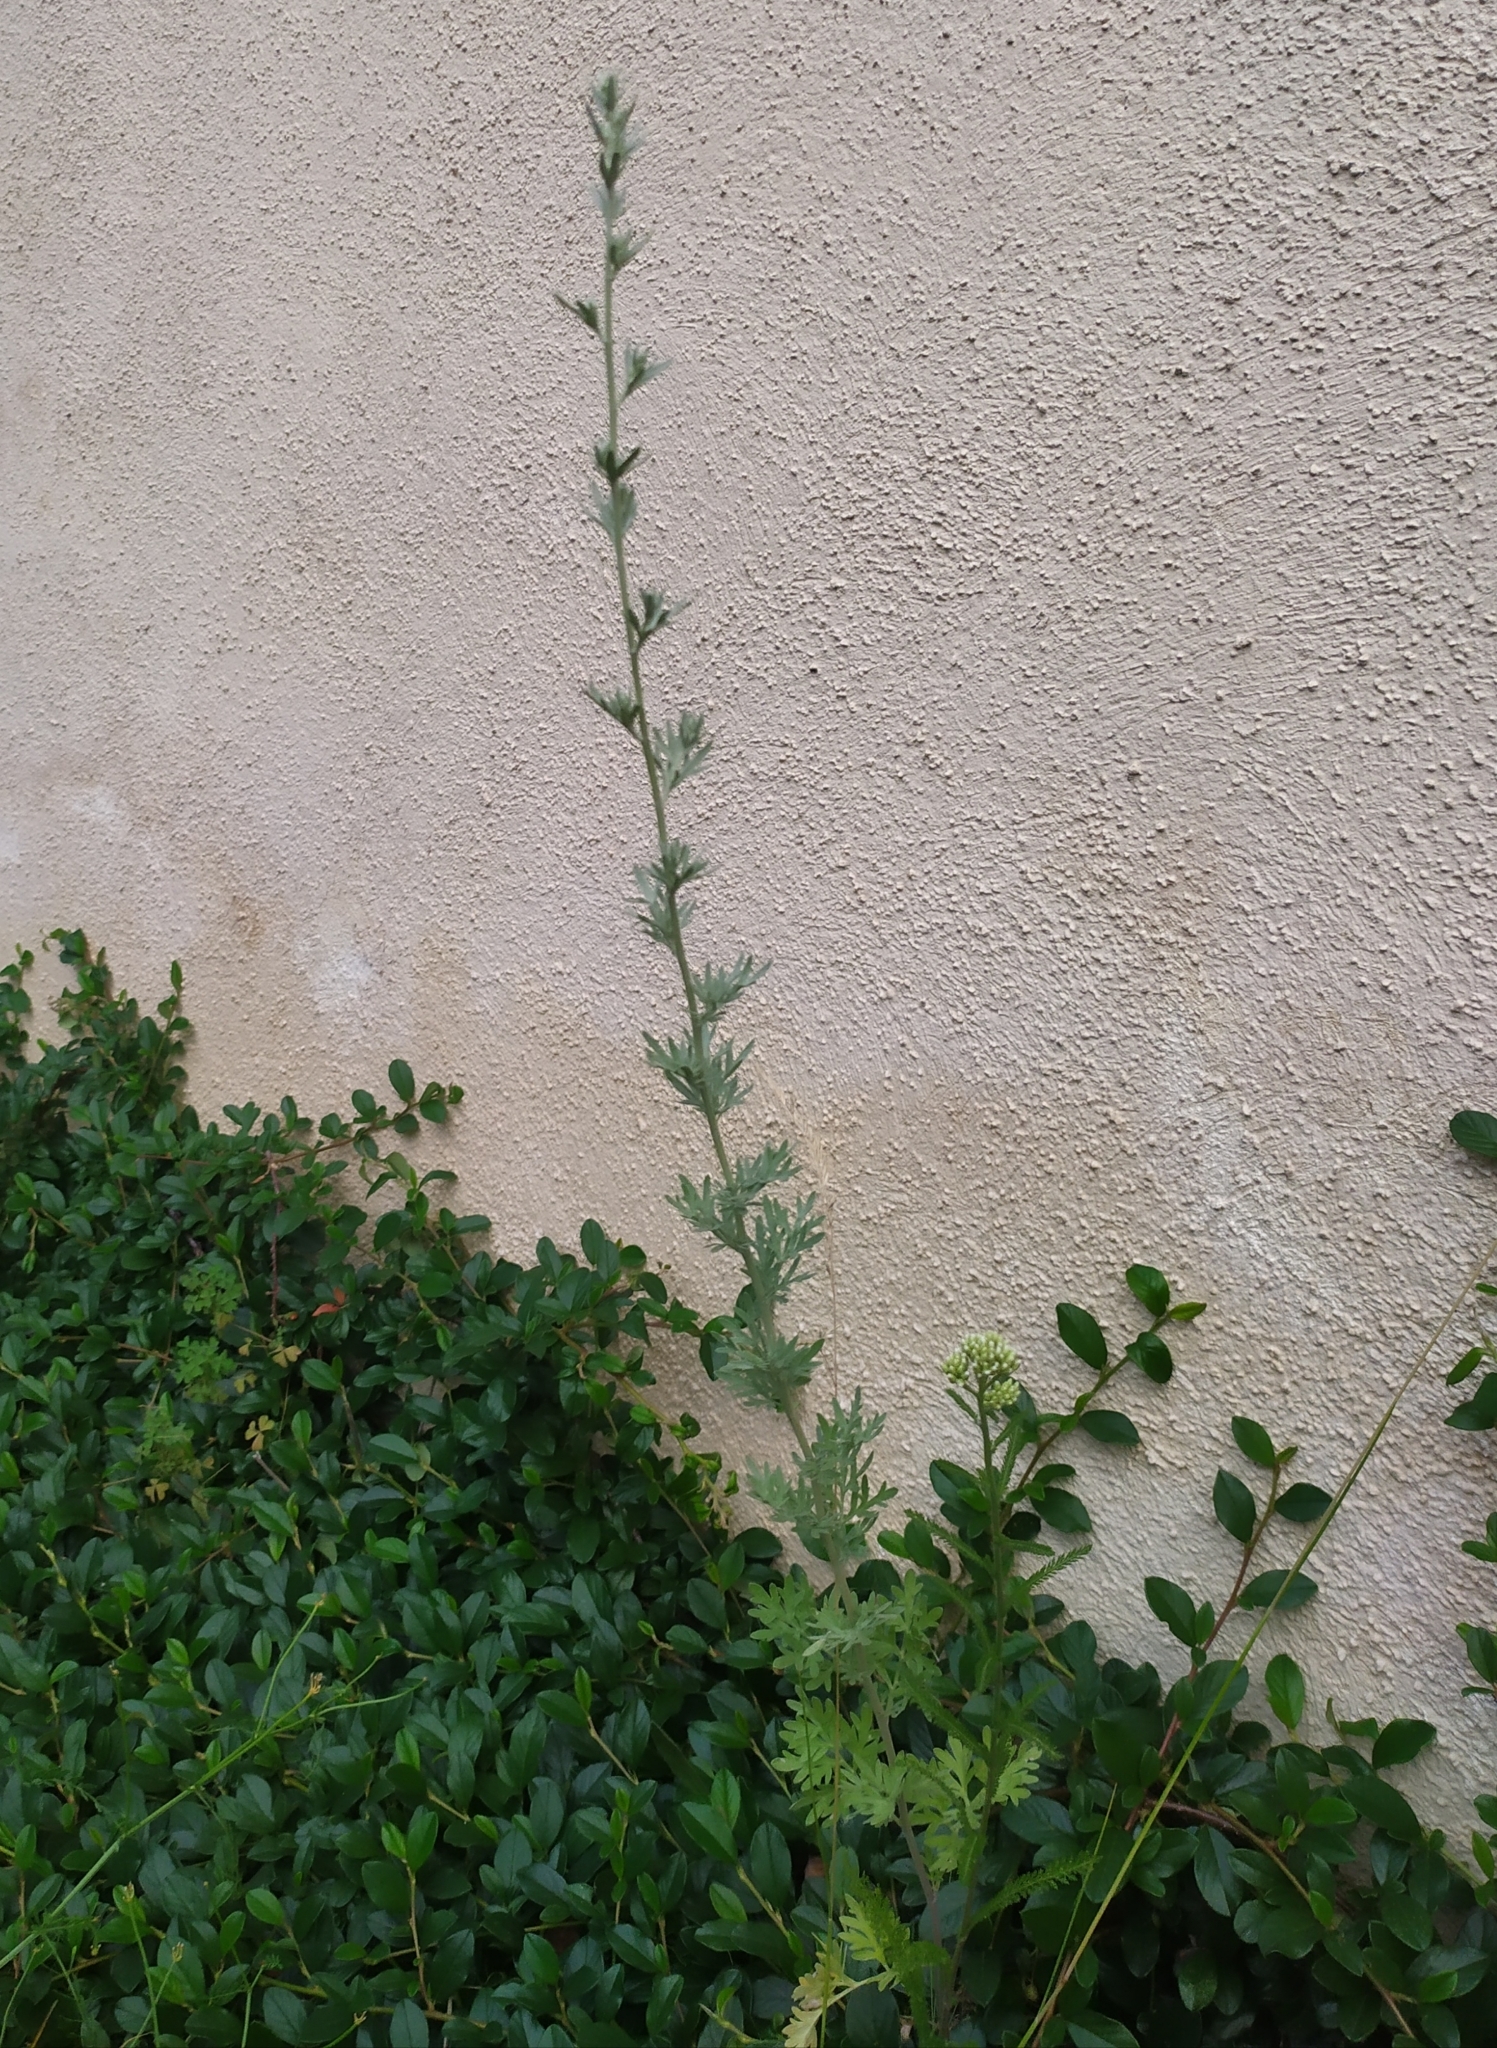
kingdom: Plantae
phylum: Tracheophyta
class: Magnoliopsida
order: Asterales
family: Asteraceae
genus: Artemisia
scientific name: Artemisia absinthium
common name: Wormwood
